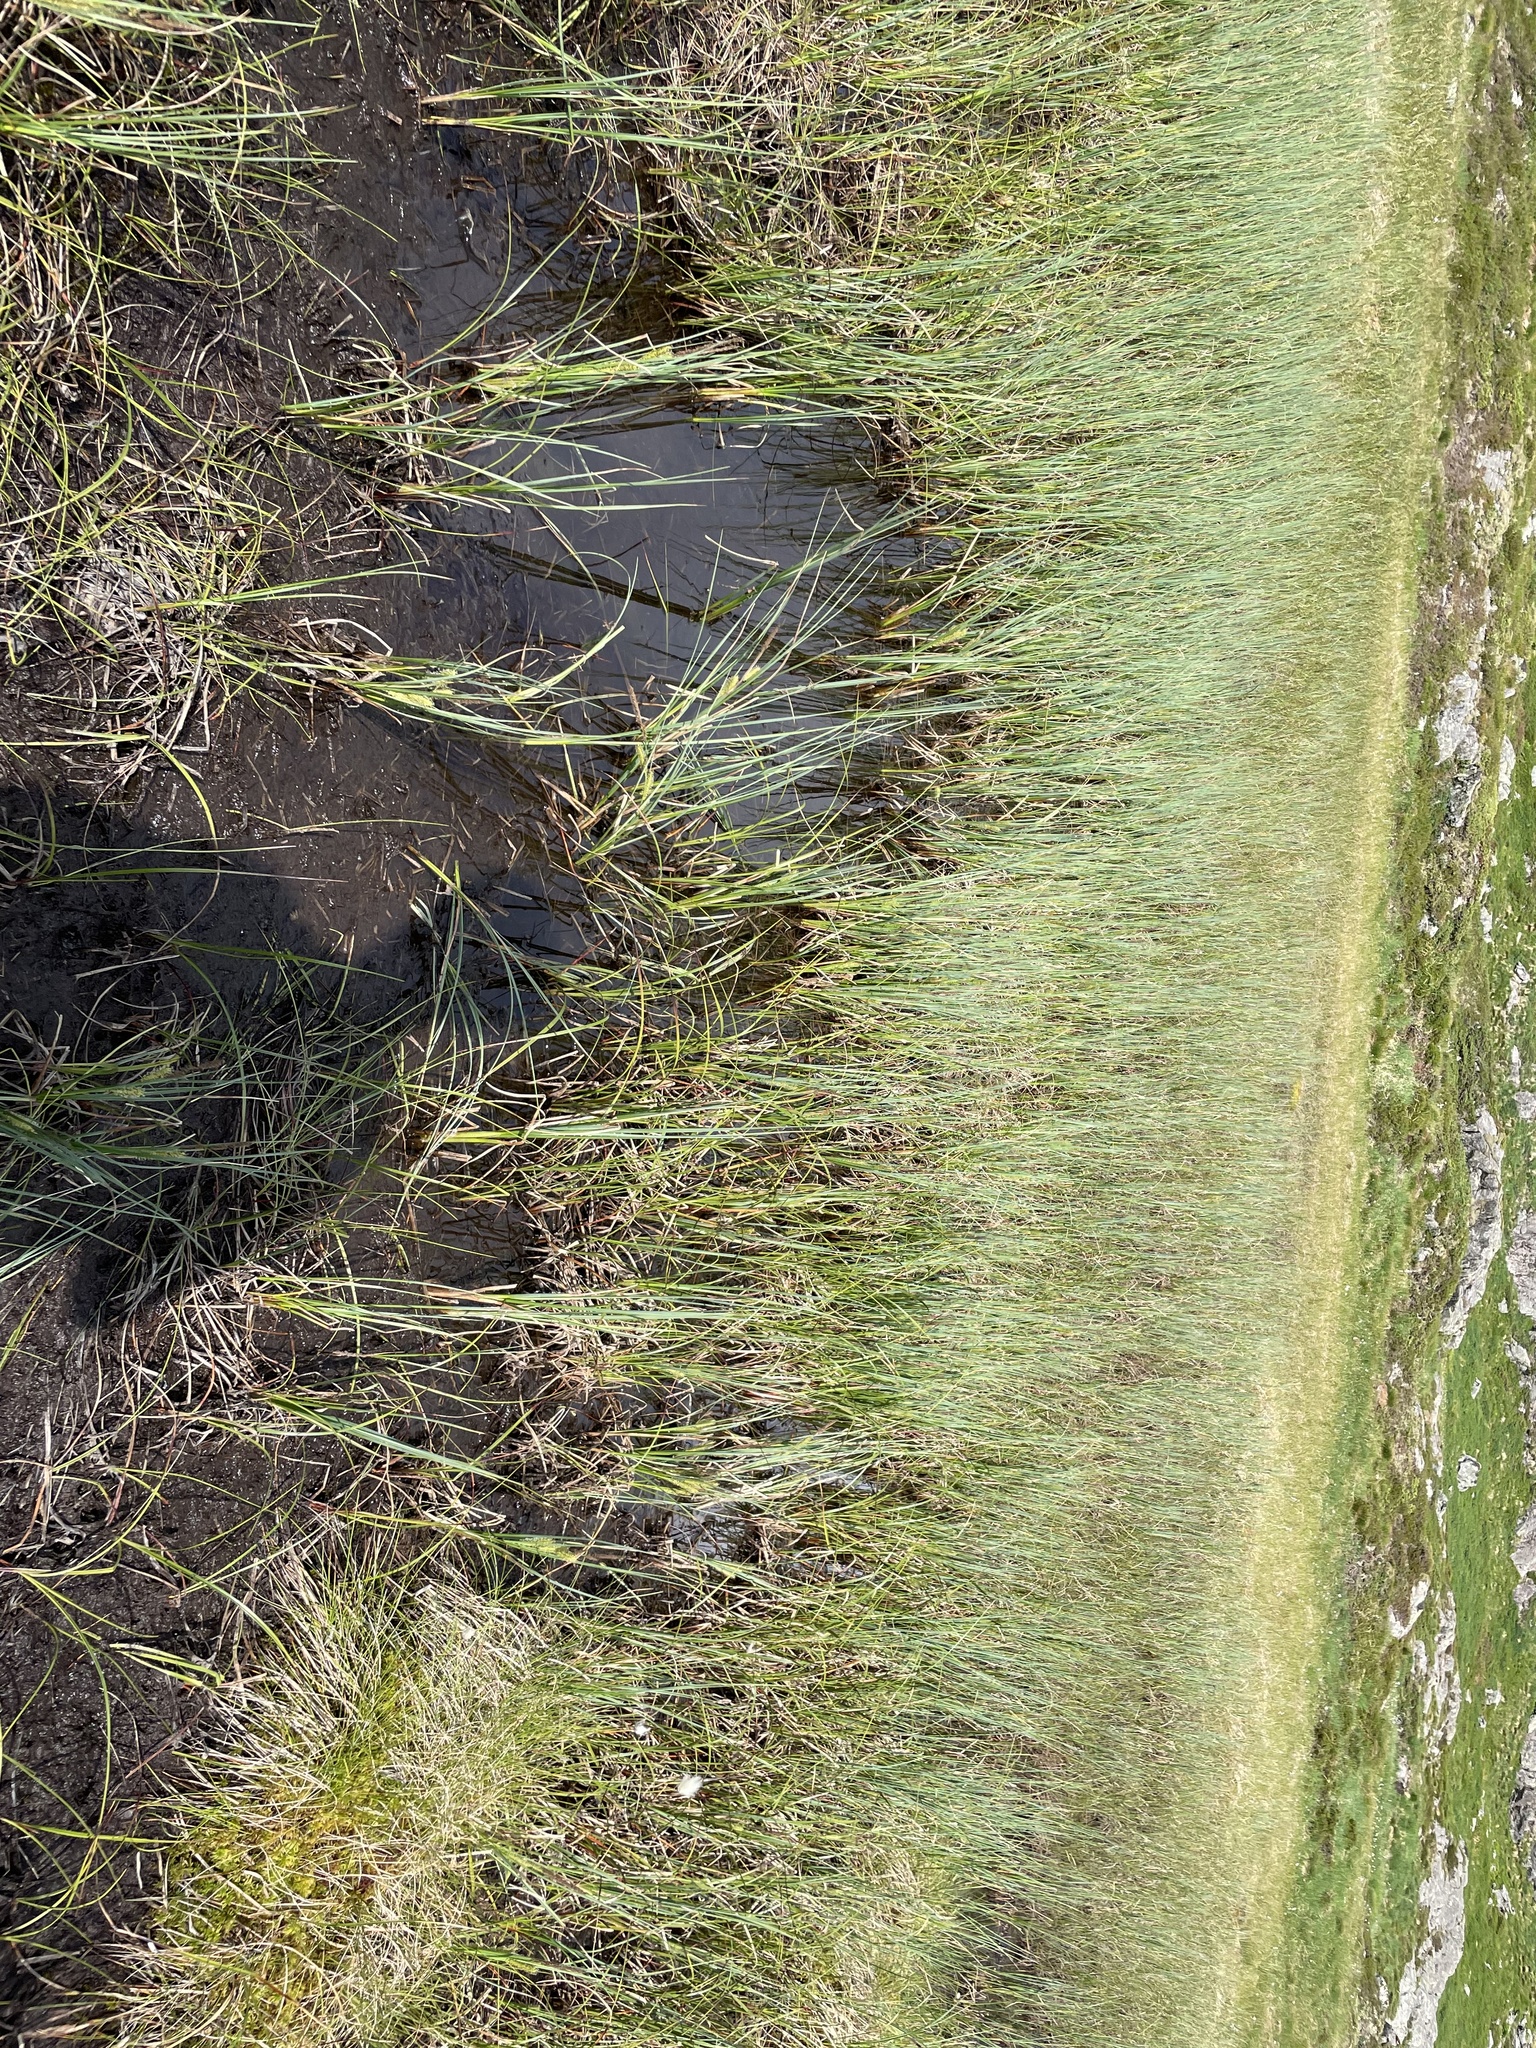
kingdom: Plantae
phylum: Tracheophyta
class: Liliopsida
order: Poales
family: Cyperaceae
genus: Carex
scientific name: Carex rostrata
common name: Bottle sedge
